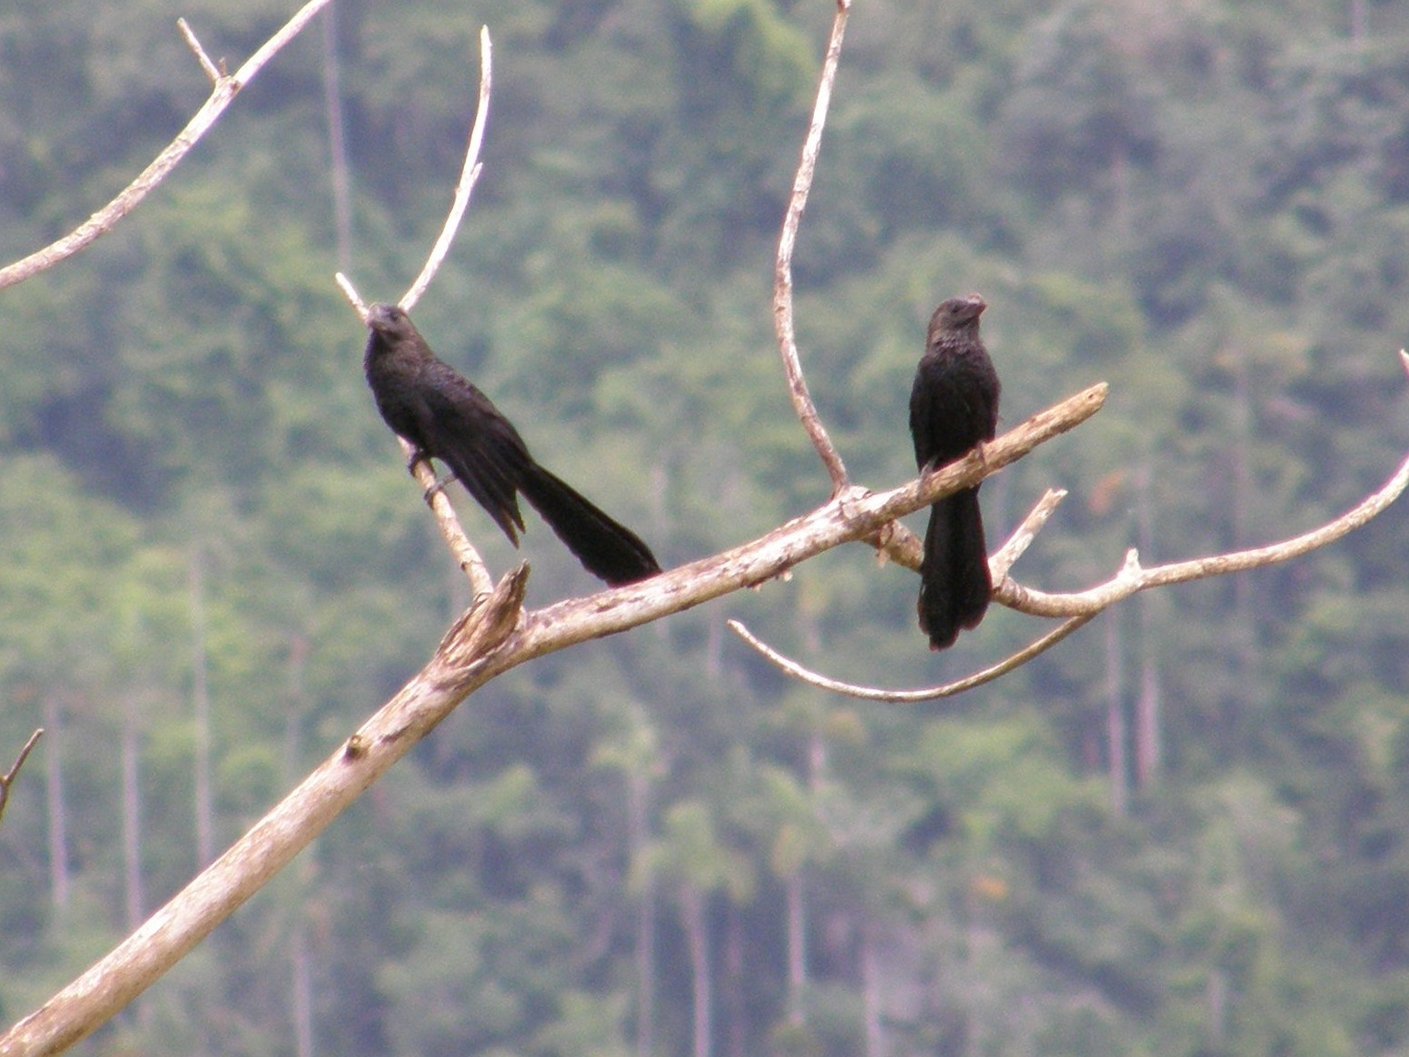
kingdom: Animalia
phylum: Chordata
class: Aves
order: Cuculiformes
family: Cuculidae
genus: Crotophaga
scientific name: Crotophaga ani
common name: Smooth-billed ani
